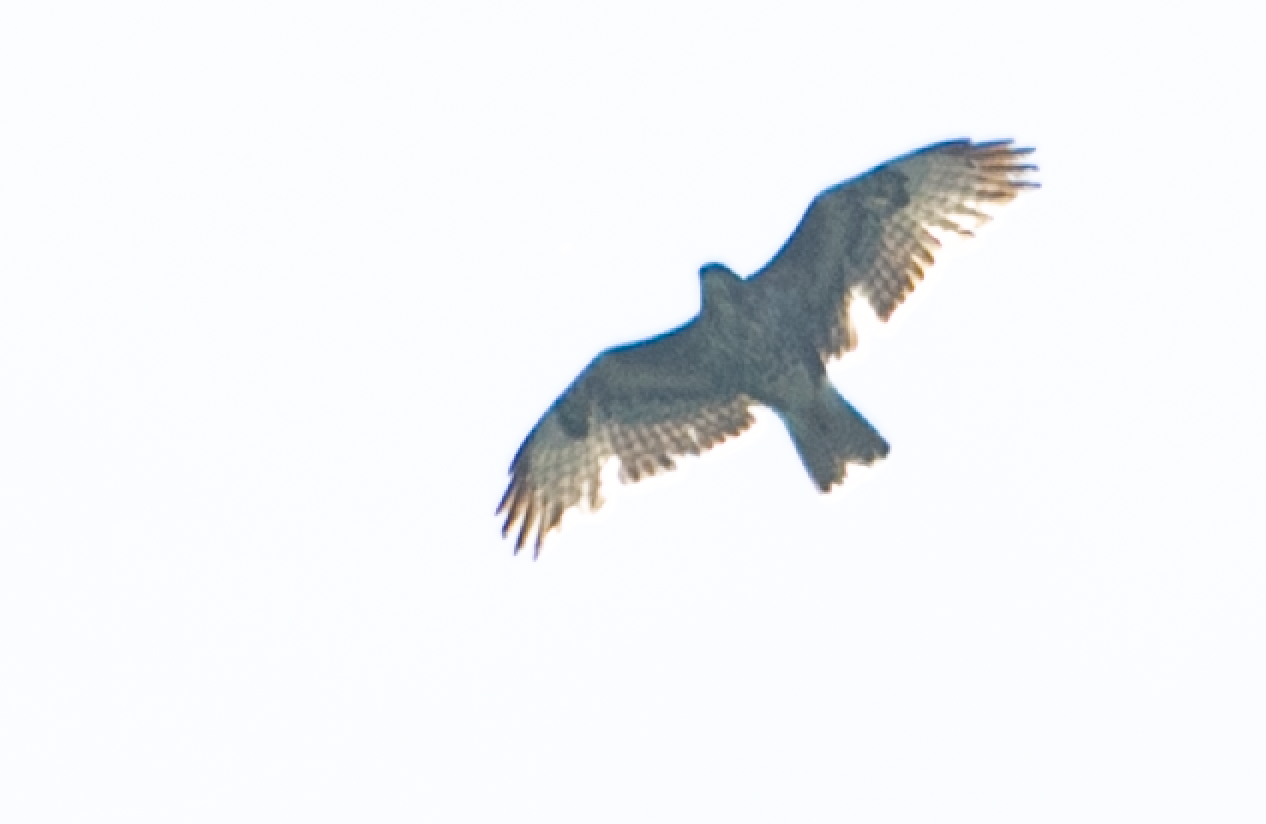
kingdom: Animalia
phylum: Chordata
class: Aves
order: Accipitriformes
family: Accipitridae
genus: Buteo
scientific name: Buteo buteo
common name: Common buzzard
